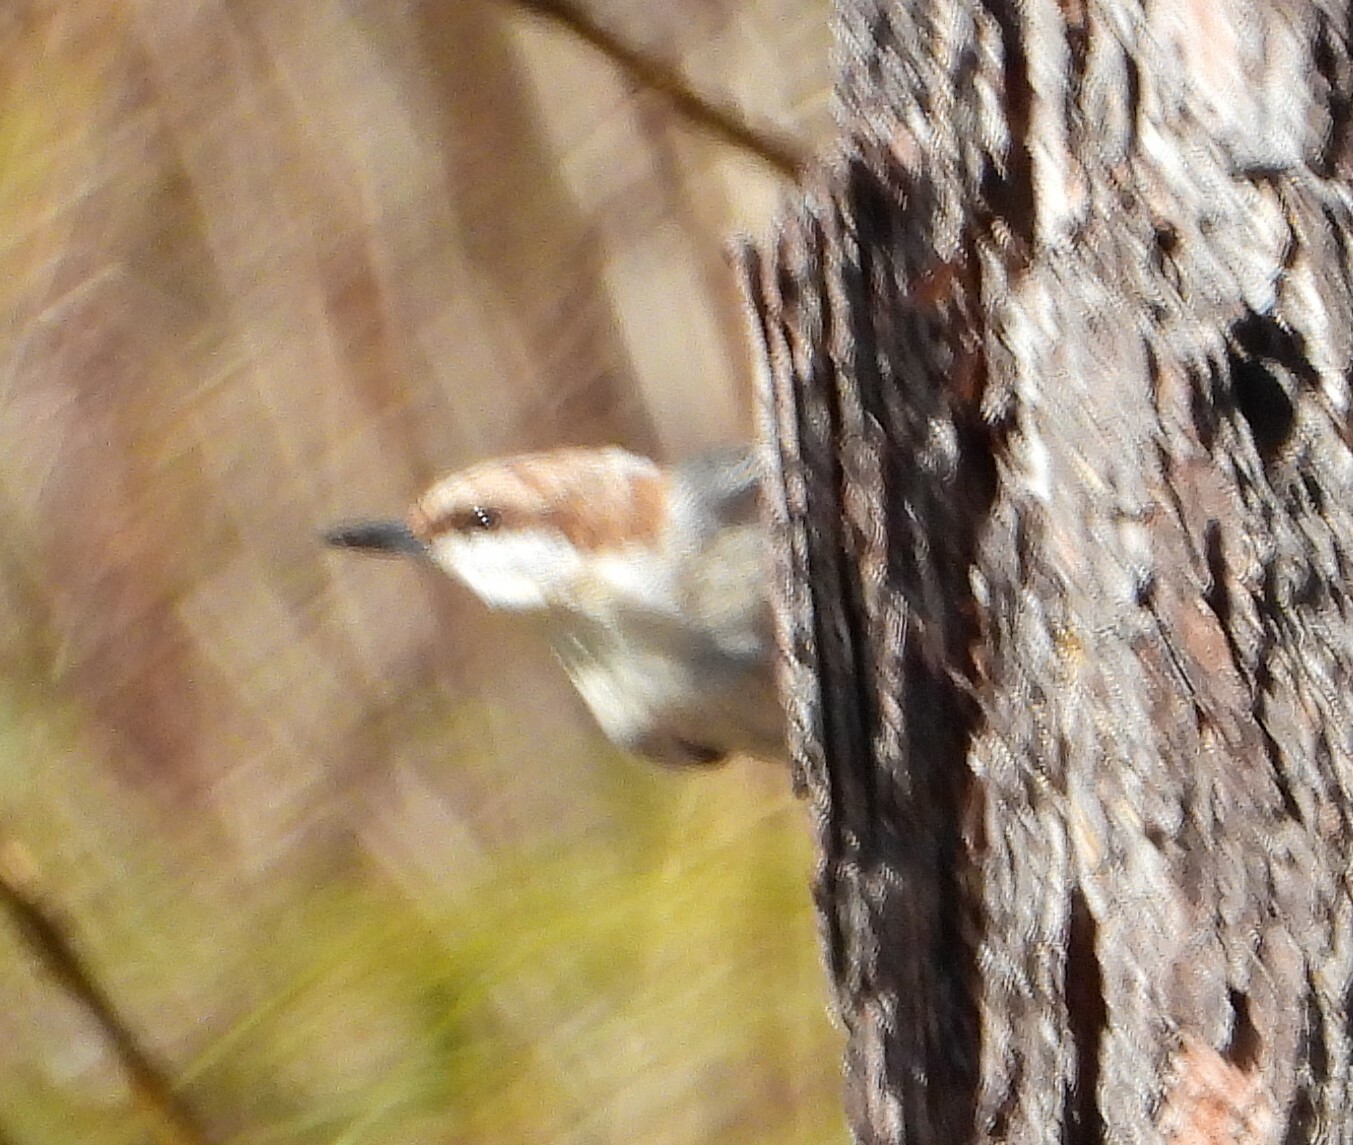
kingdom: Animalia
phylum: Chordata
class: Aves
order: Passeriformes
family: Sittidae
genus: Sitta
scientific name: Sitta pusilla
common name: Brown-headed nuthatch
